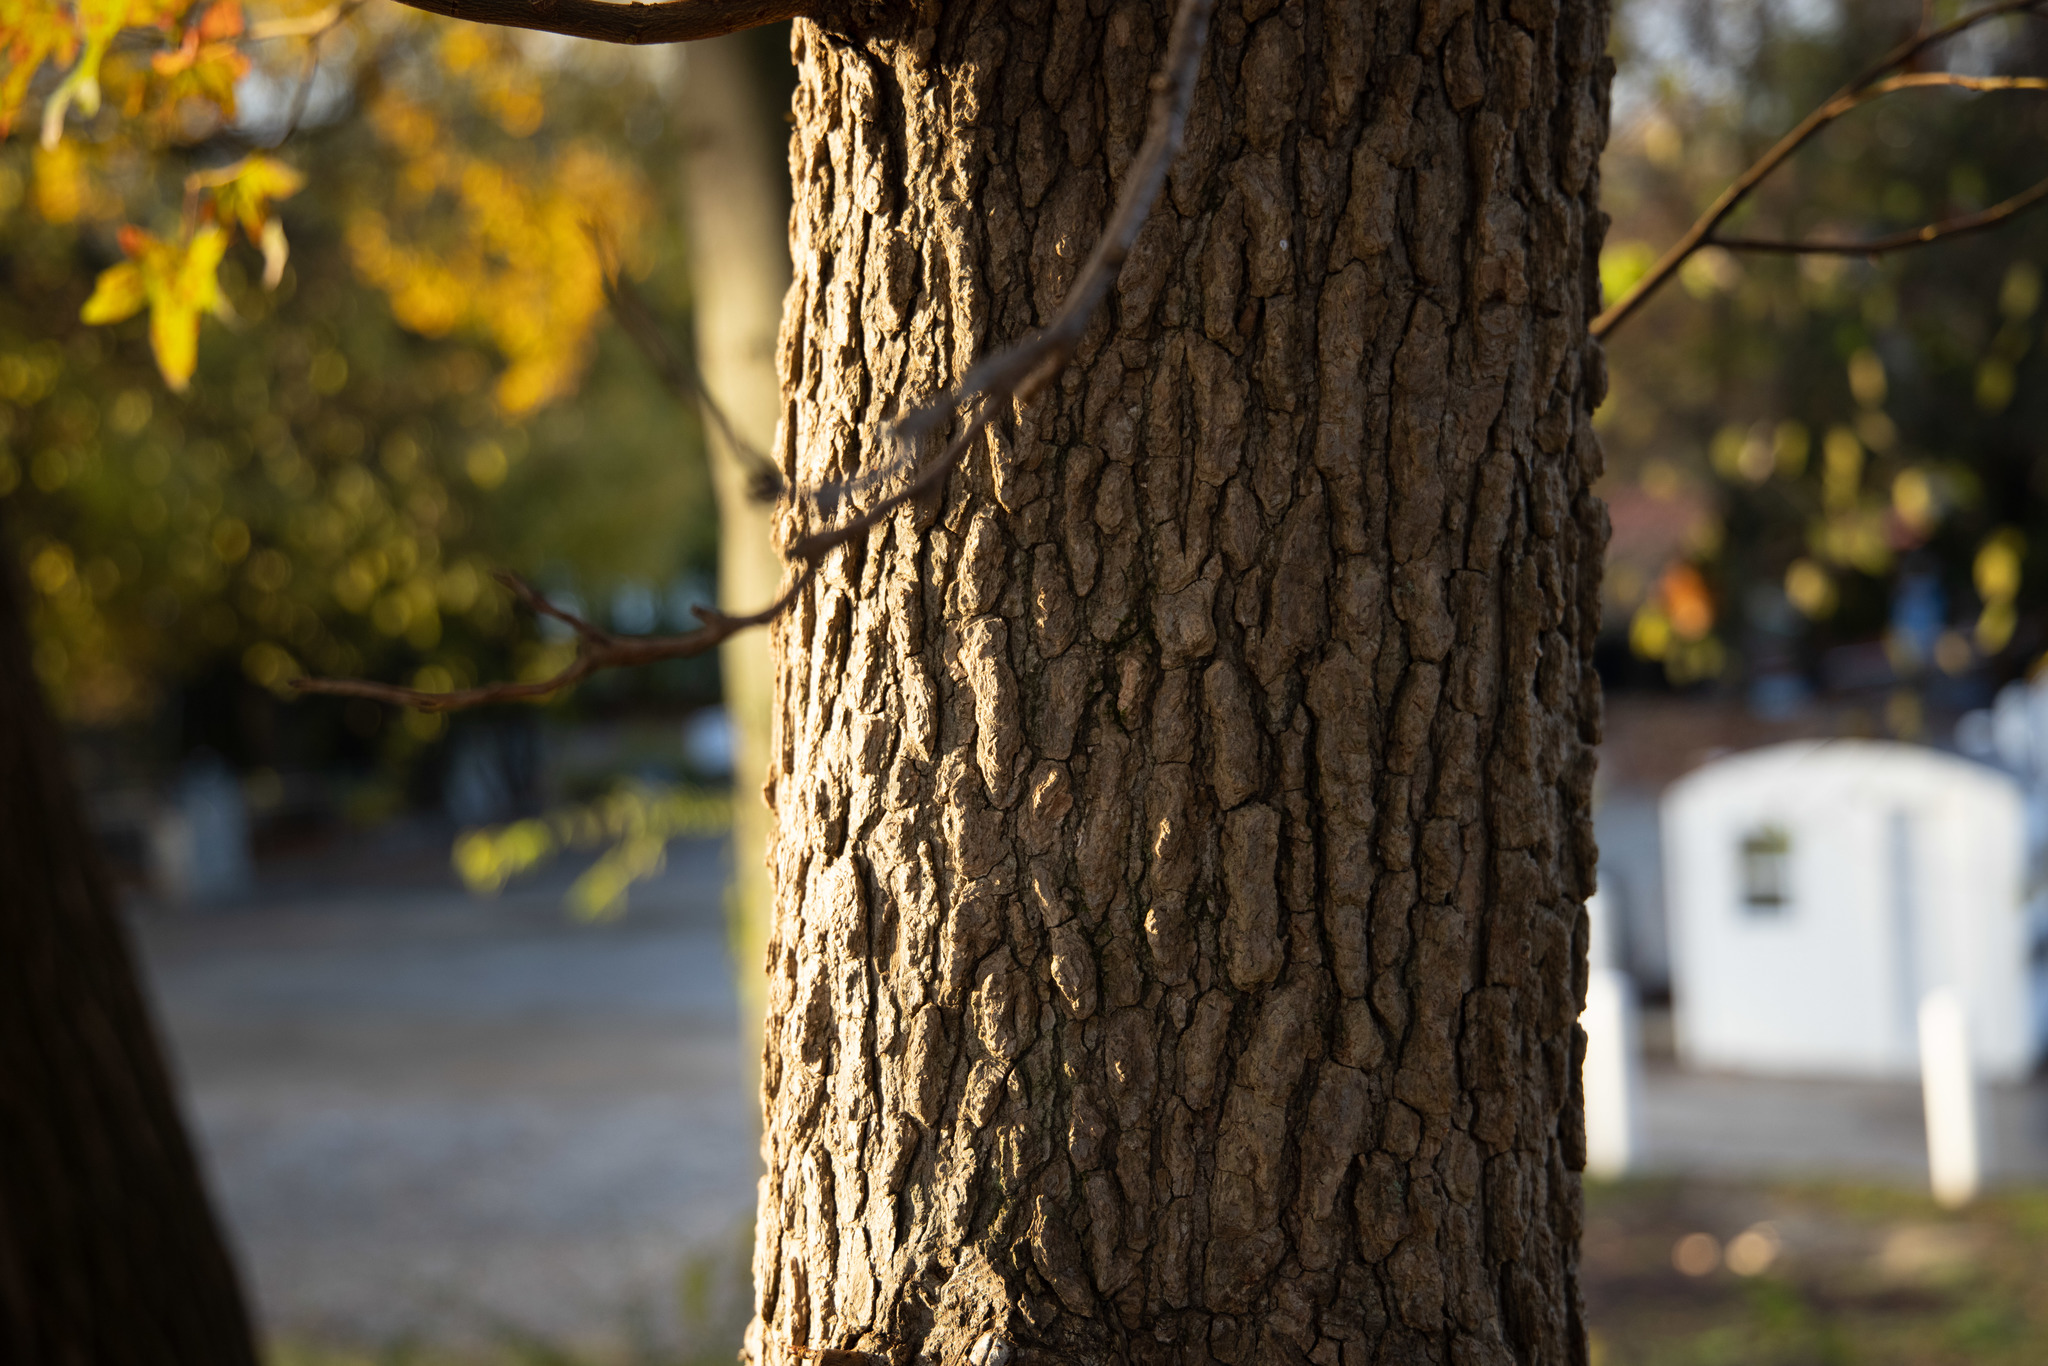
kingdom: Plantae
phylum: Tracheophyta
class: Magnoliopsida
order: Saxifragales
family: Altingiaceae
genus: Liquidambar
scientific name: Liquidambar styraciflua
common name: Sweet gum
